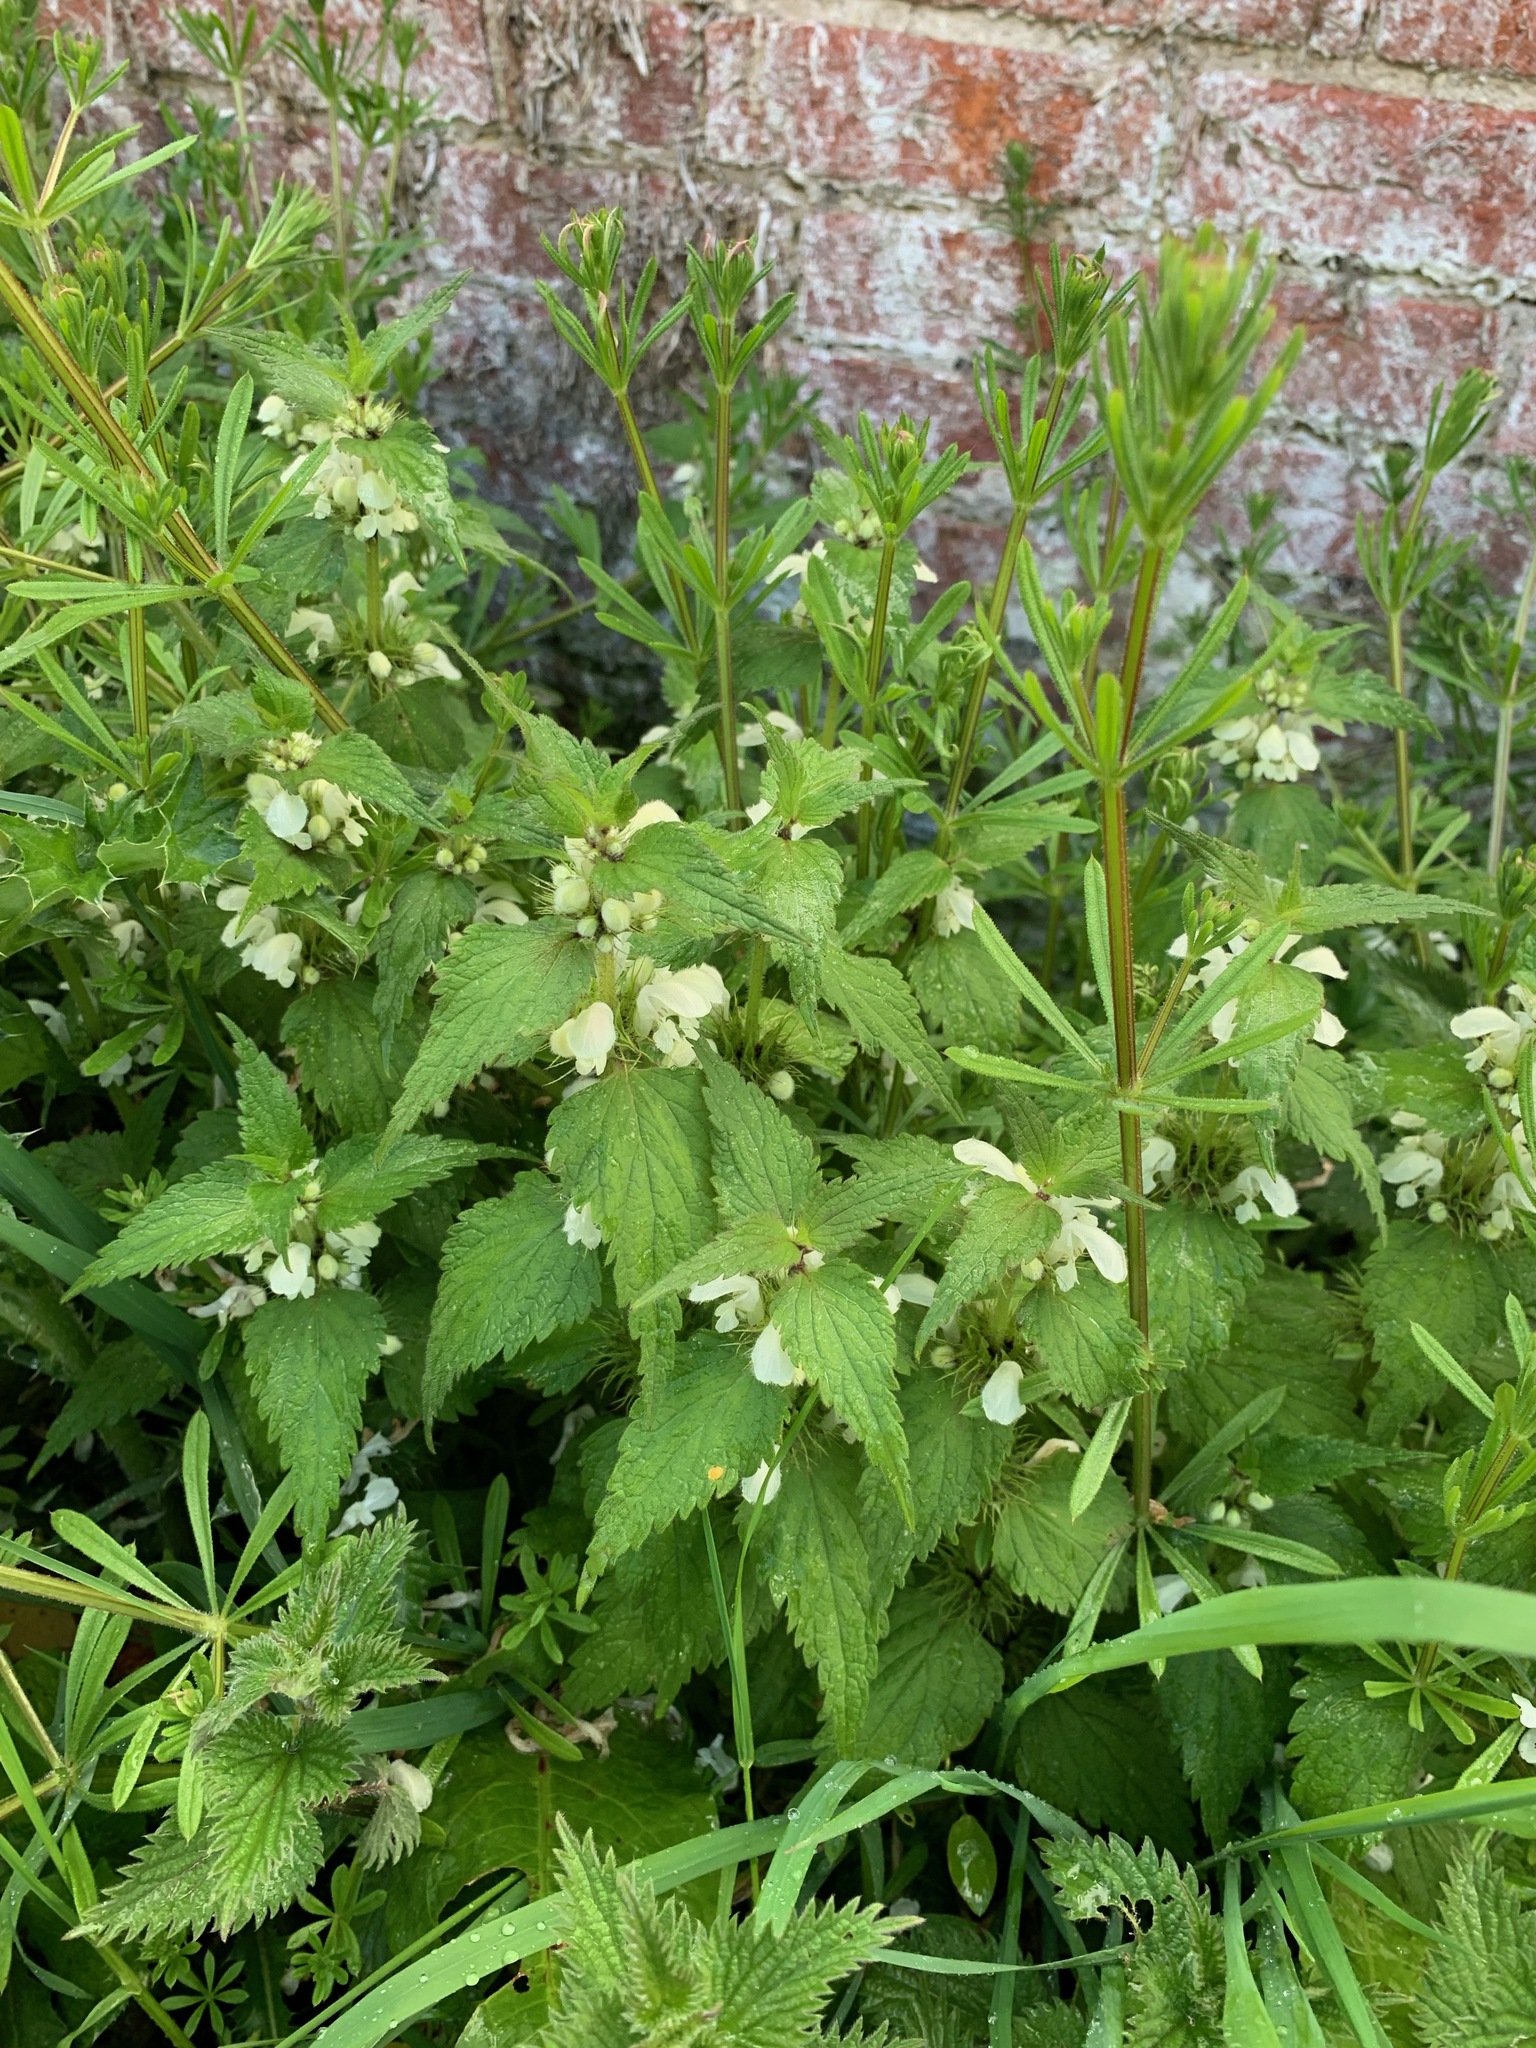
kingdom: Plantae
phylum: Tracheophyta
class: Magnoliopsida
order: Lamiales
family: Lamiaceae
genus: Lamium
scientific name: Lamium album
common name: White dead-nettle
